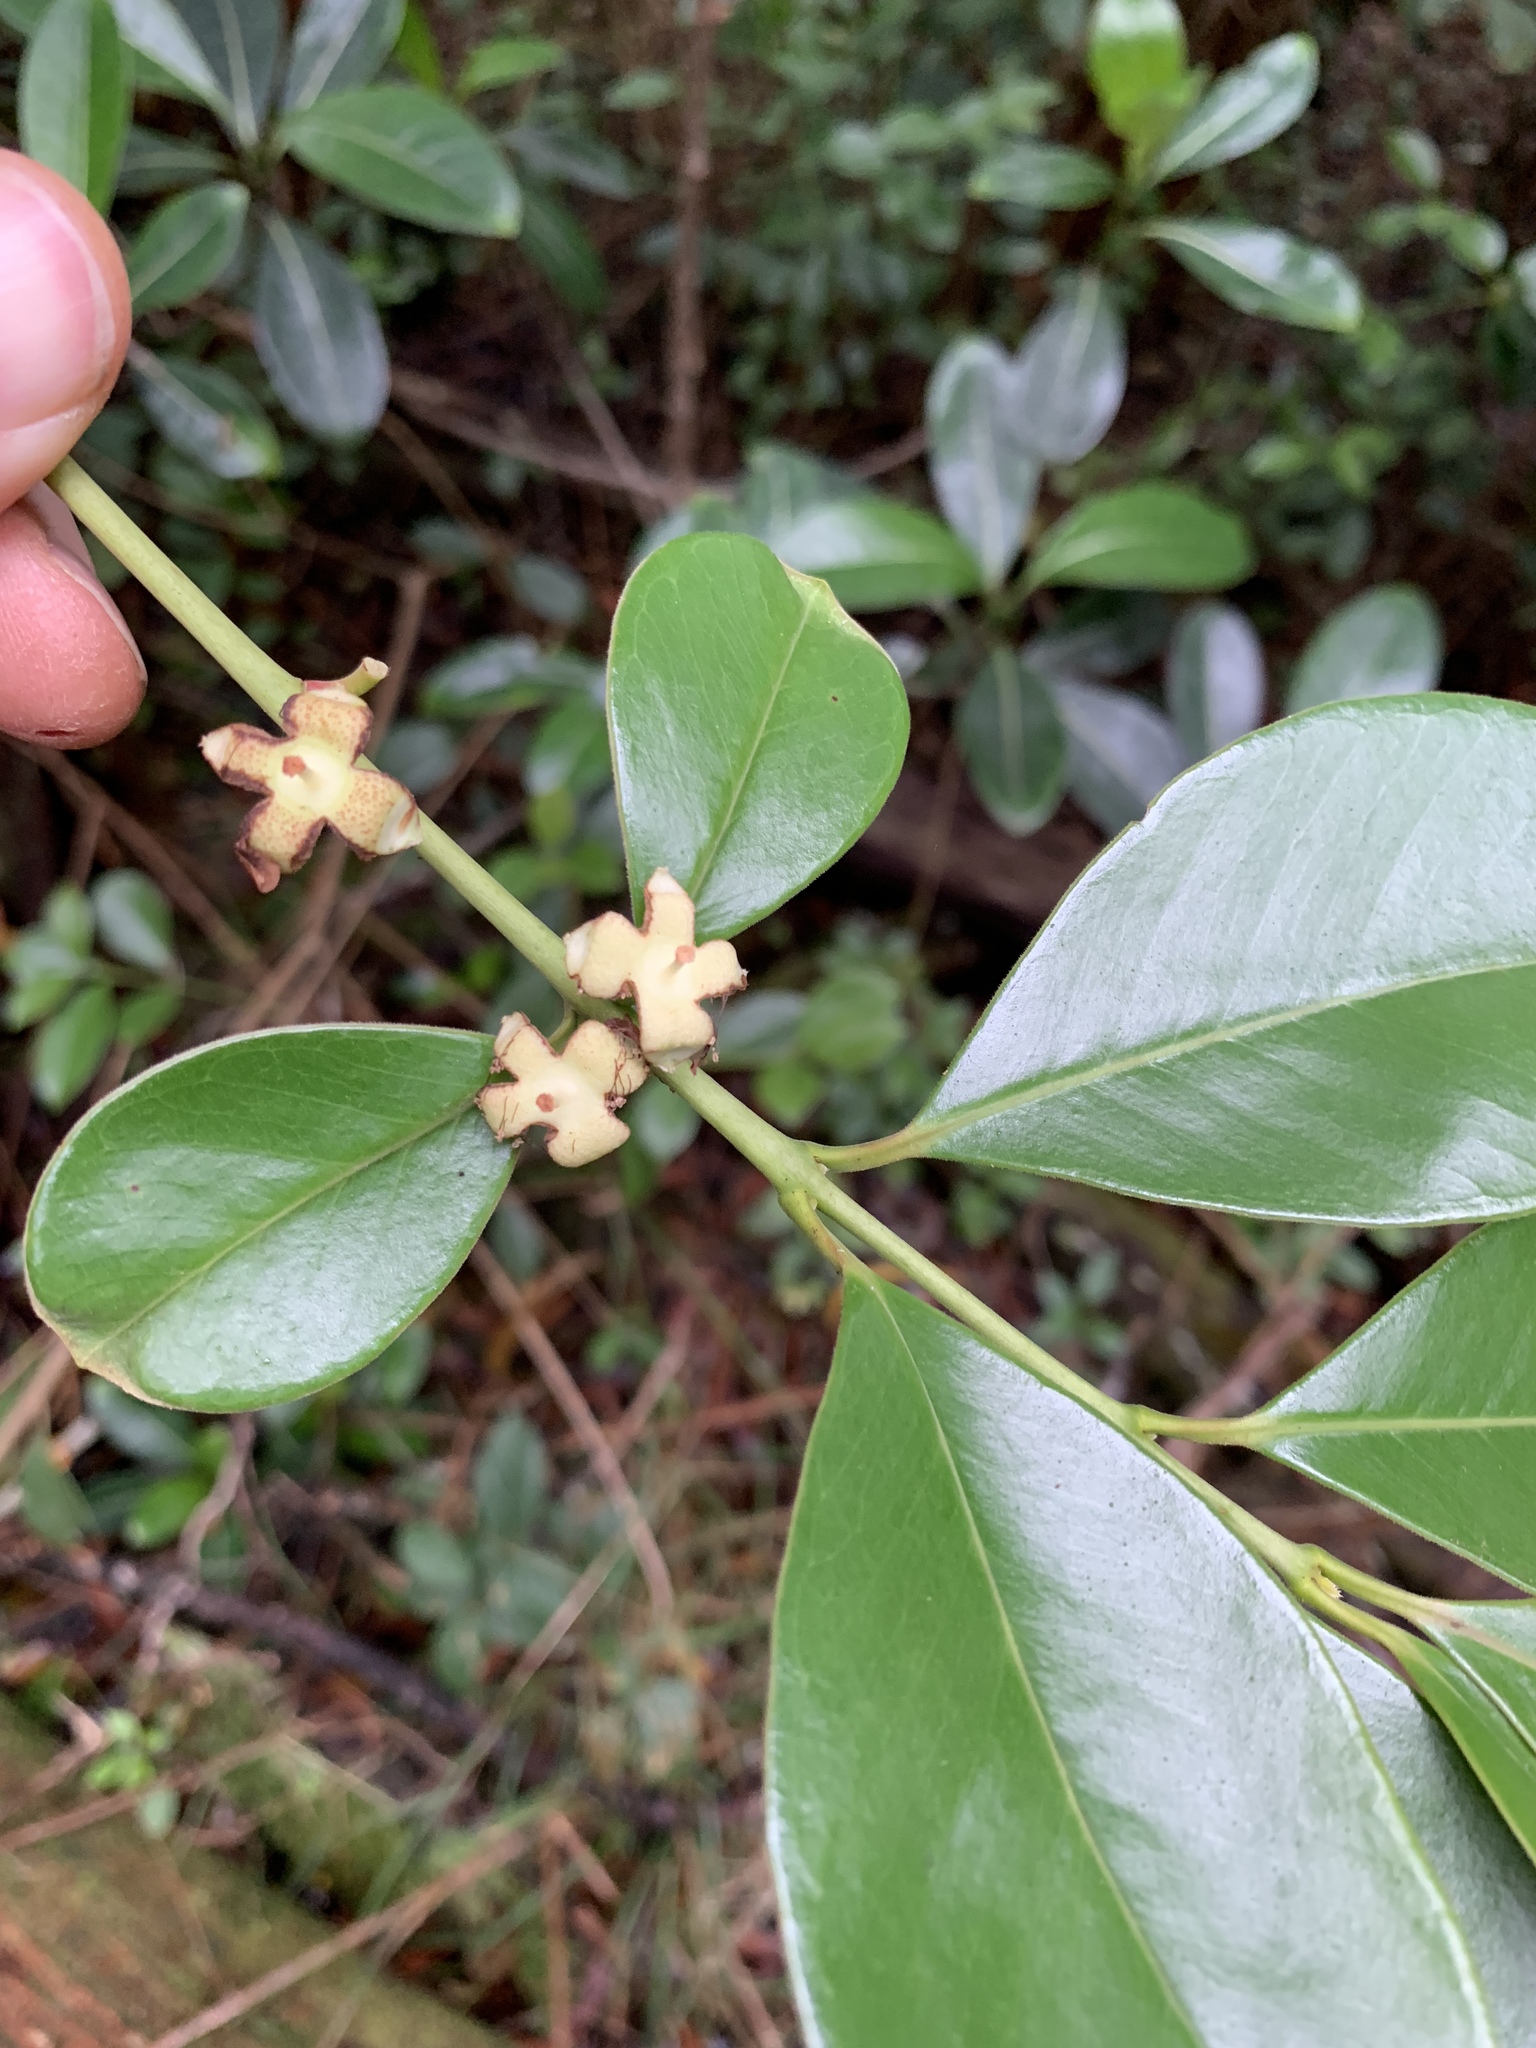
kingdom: Plantae
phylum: Tracheophyta
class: Magnoliopsida
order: Myrtales
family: Myrtaceae
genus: Psidium
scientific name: Psidium cattleianum
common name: Strawberry guava
